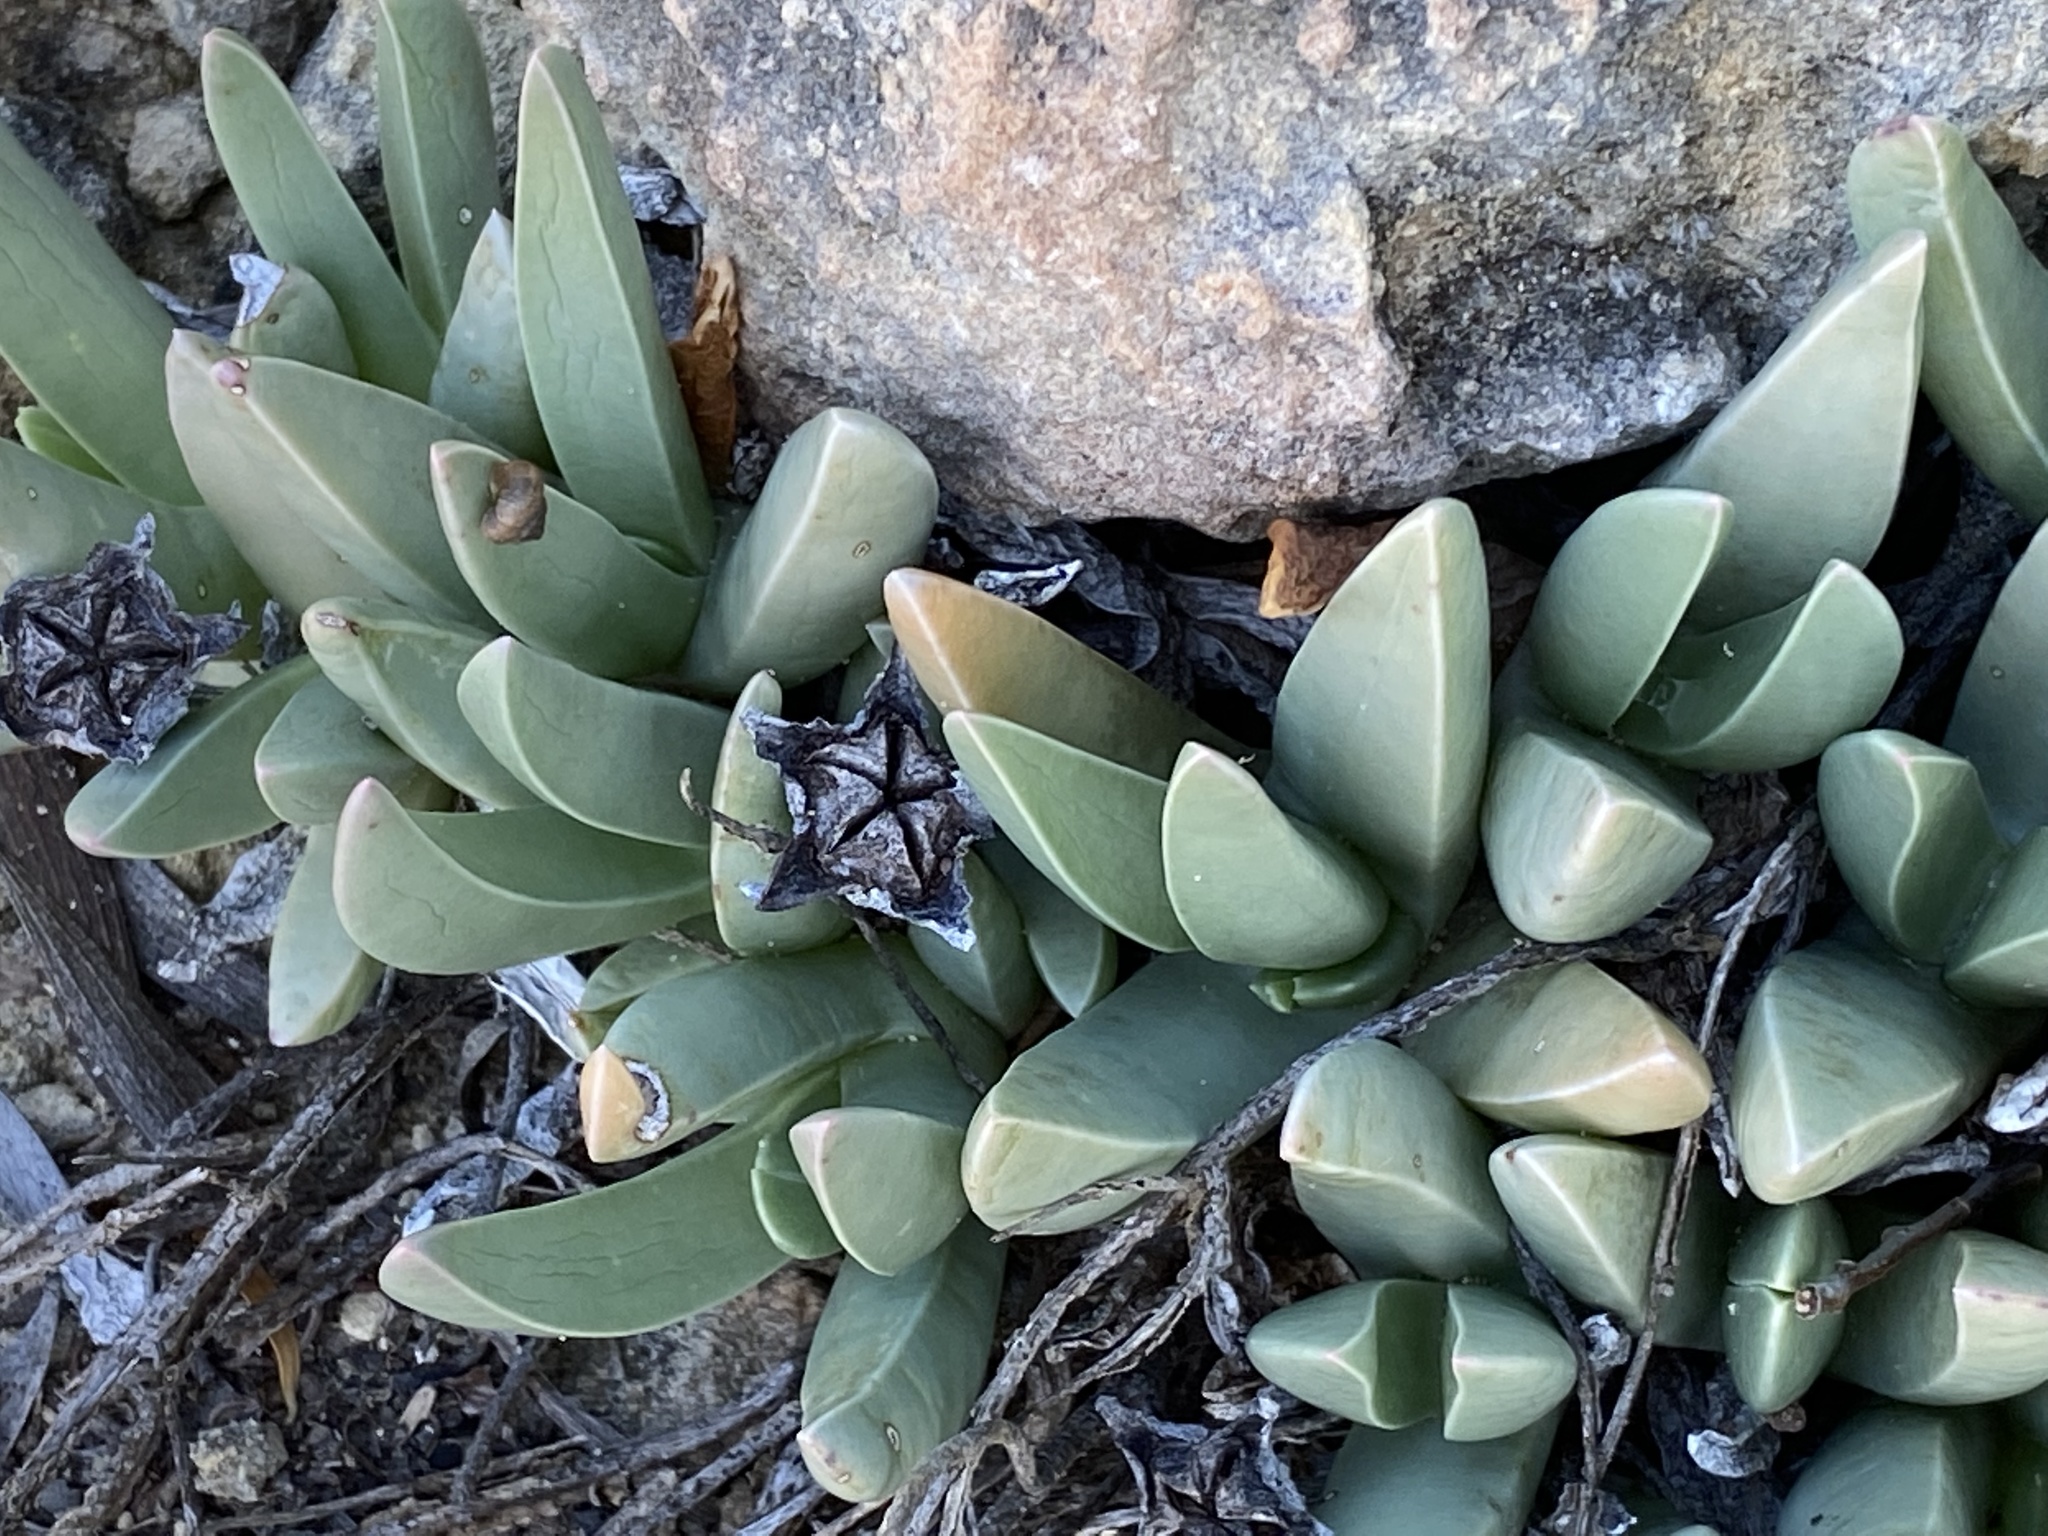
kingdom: Plantae
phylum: Tracheophyta
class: Magnoliopsida
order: Caryophyllales
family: Aizoaceae
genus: Acrodon
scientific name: Acrodon bellidiflorus
